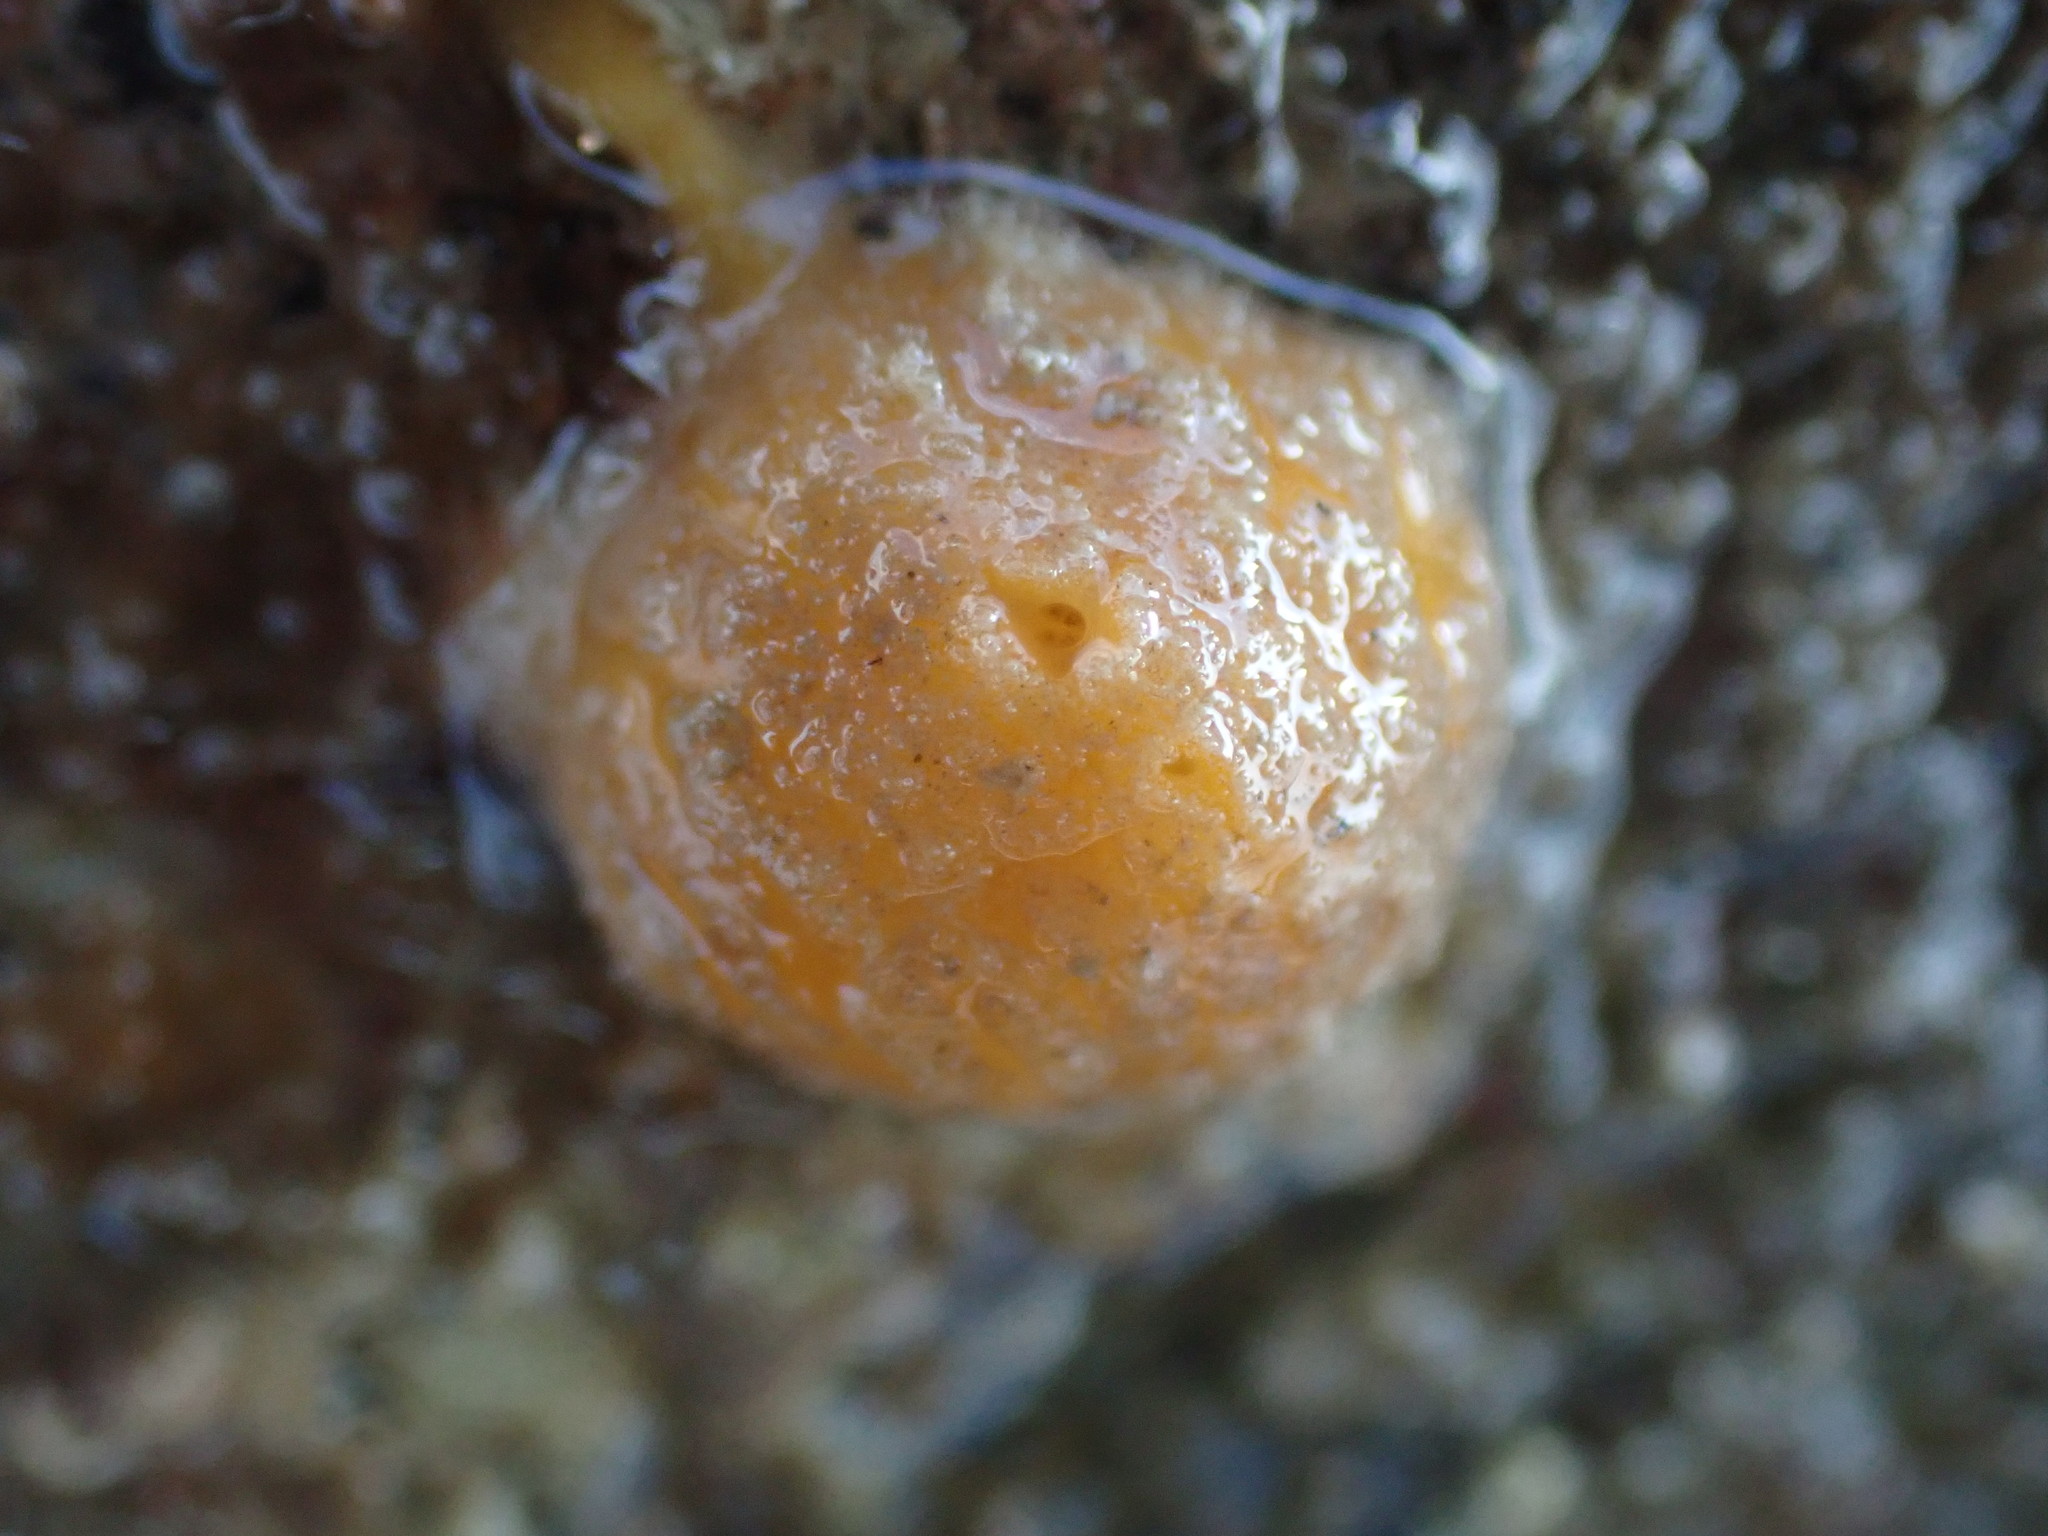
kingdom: Animalia
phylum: Porifera
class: Demospongiae
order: Tethyida
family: Tethyidae
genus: Tethya
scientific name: Tethya burtoni
